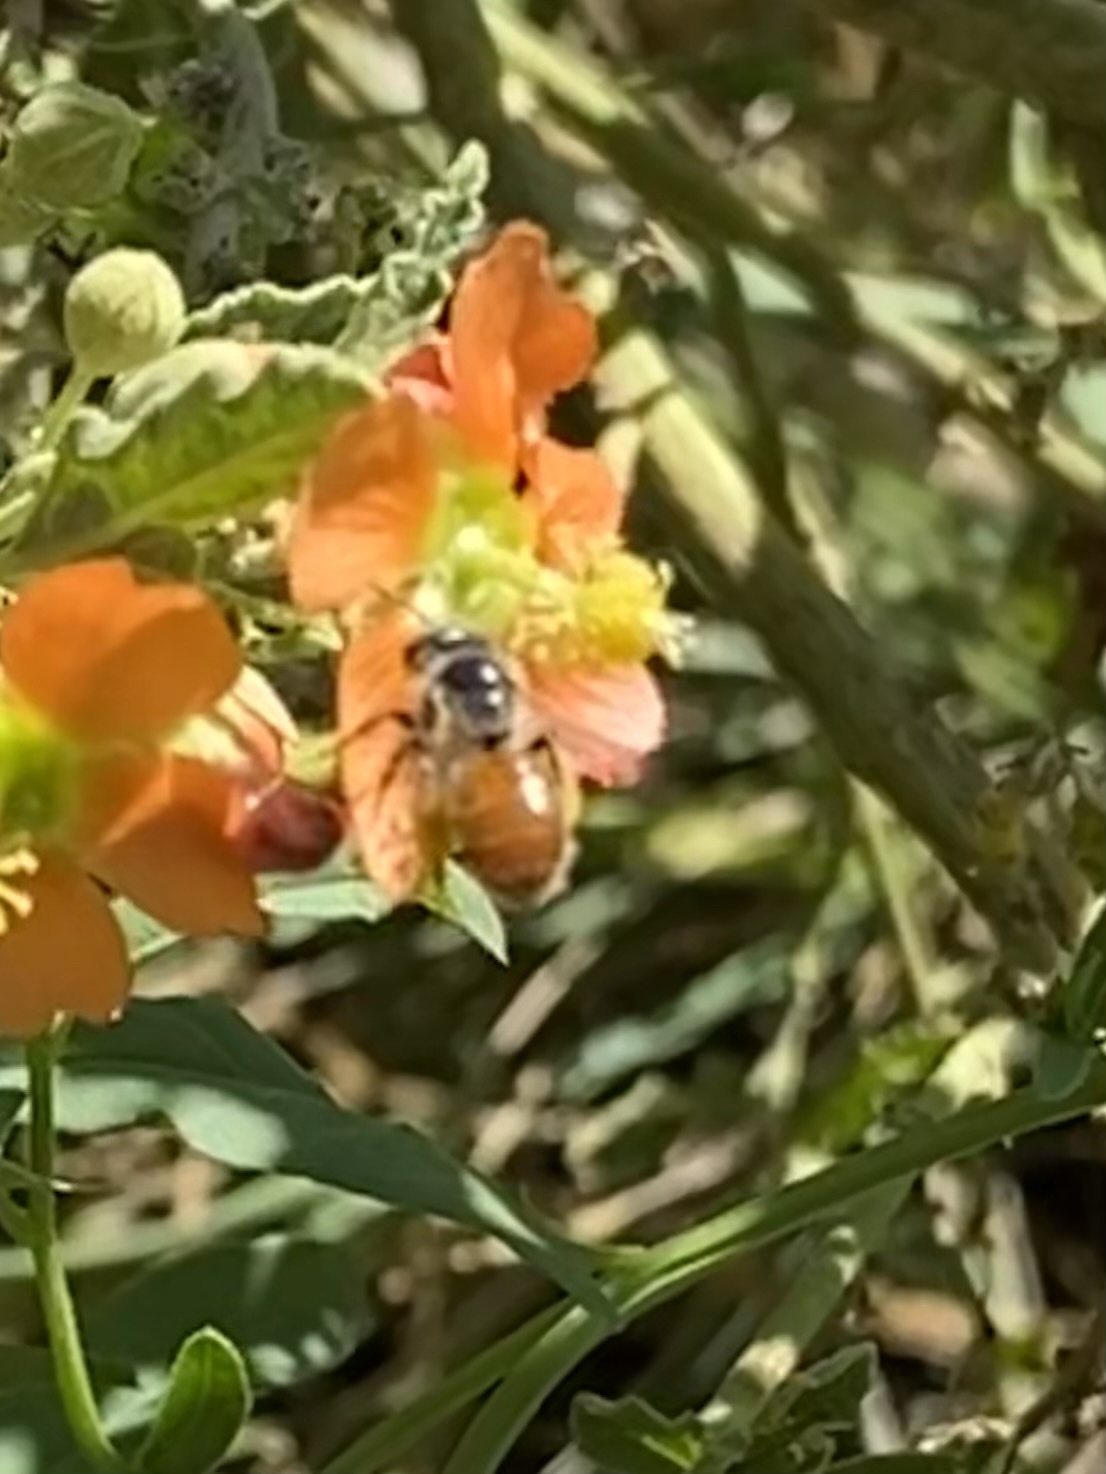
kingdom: Animalia
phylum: Arthropoda
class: Insecta
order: Hymenoptera
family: Andrenidae
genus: Calliopsis
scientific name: Calliopsis subalpina
